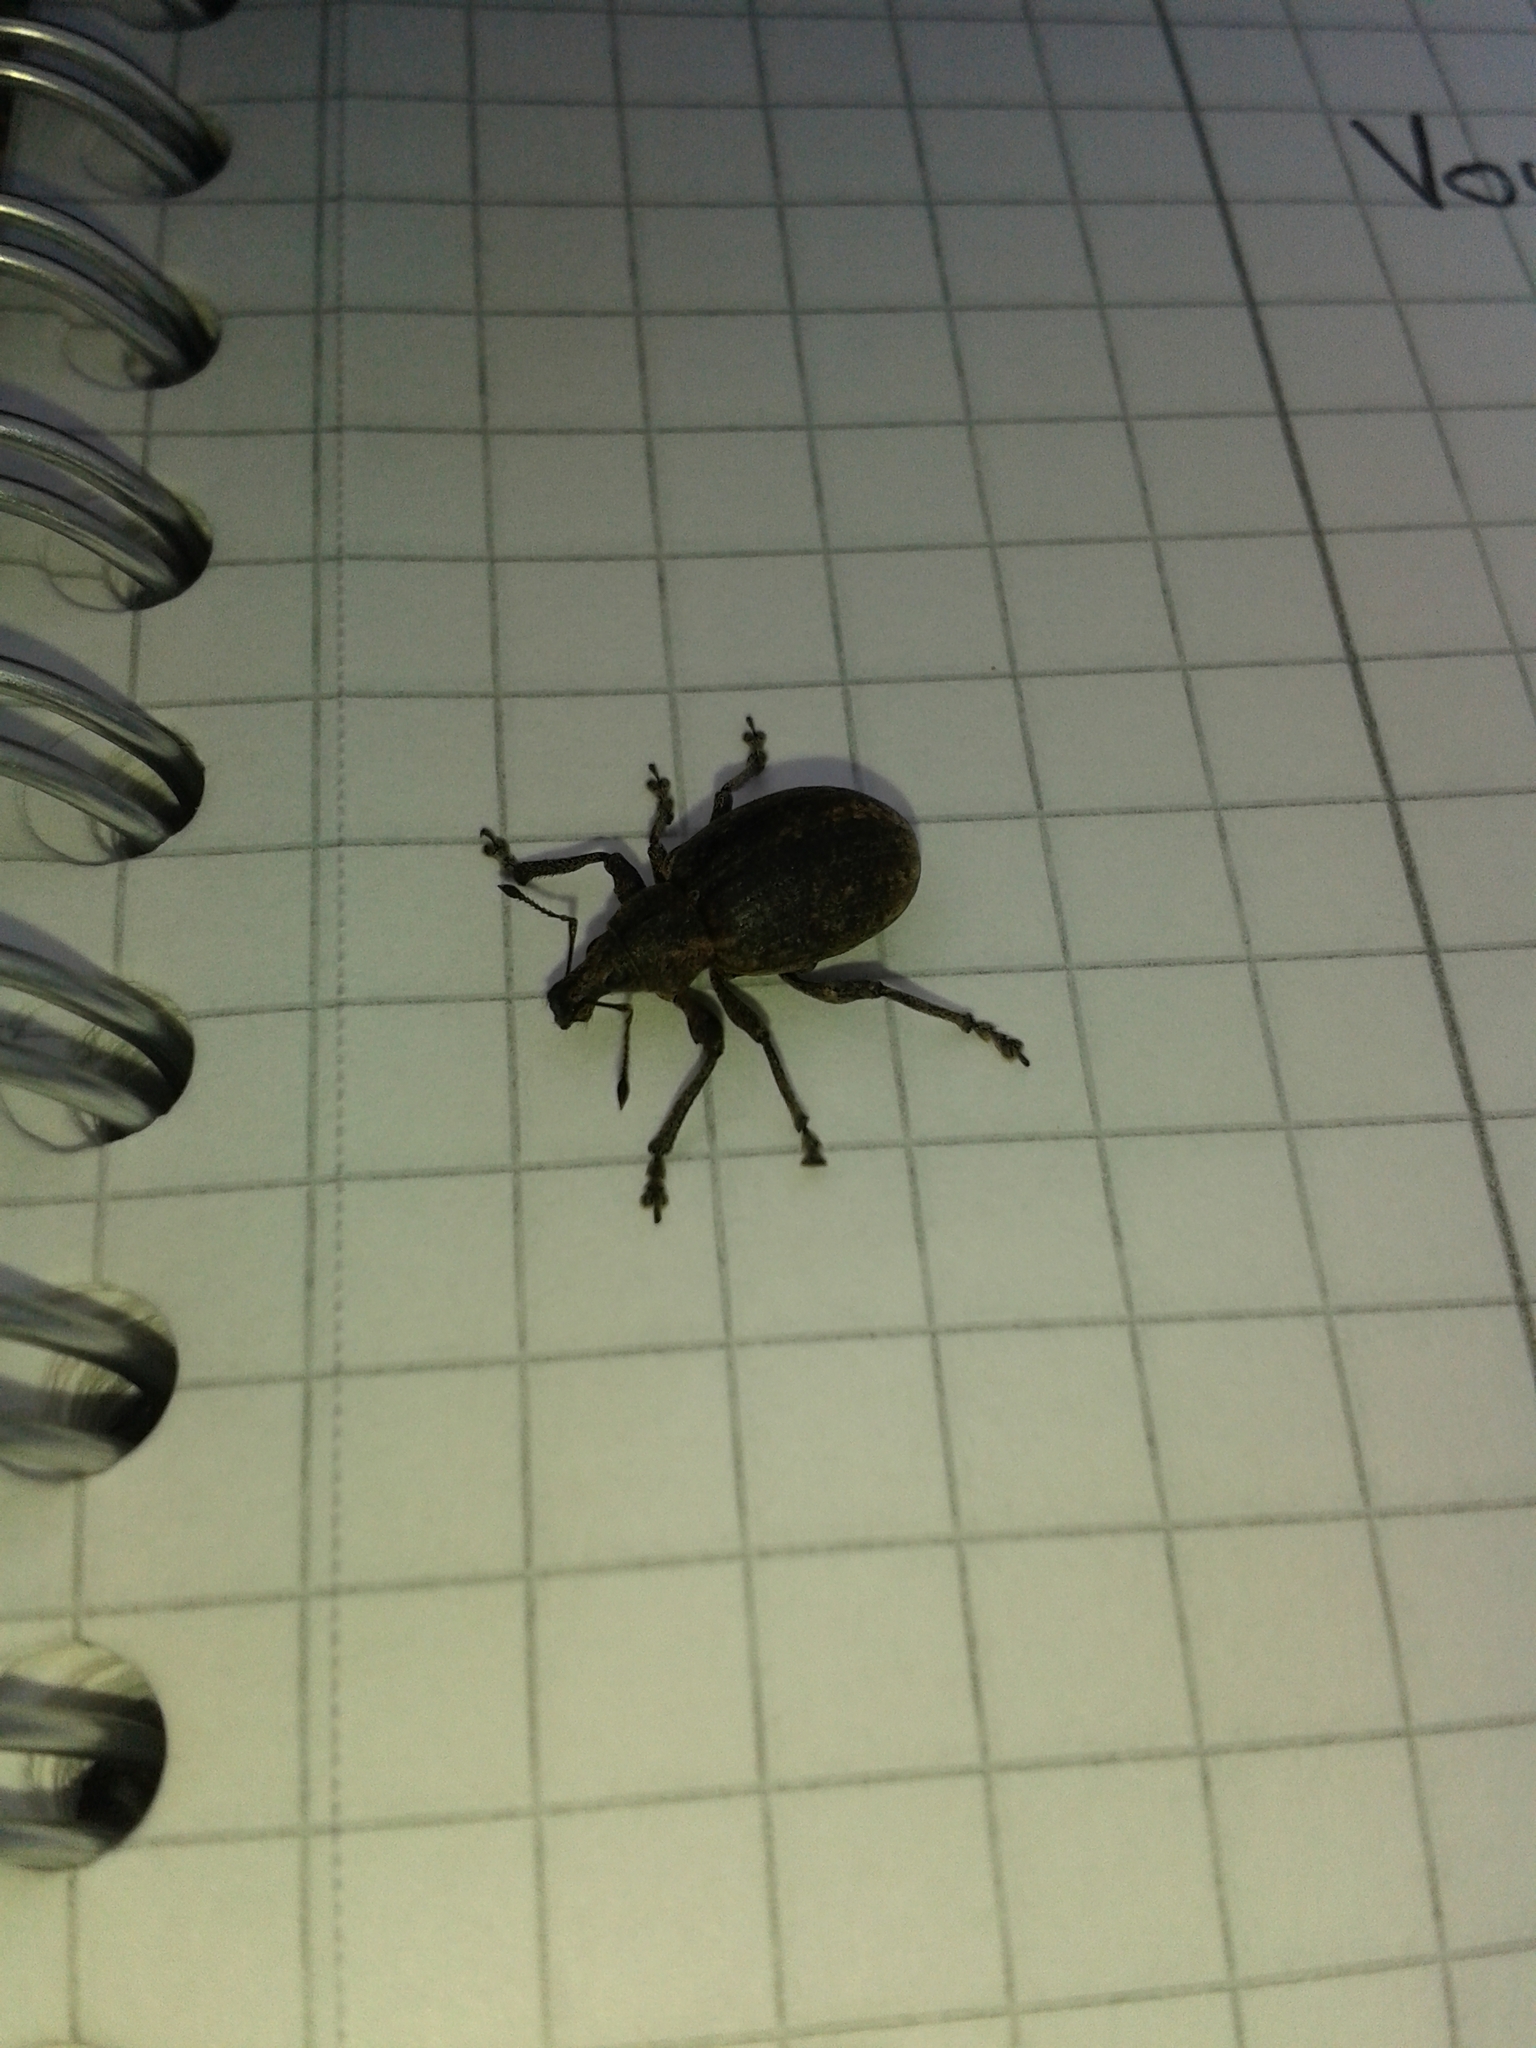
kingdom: Animalia
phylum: Arthropoda
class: Insecta
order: Coleoptera
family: Curculionidae
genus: Liophloeus
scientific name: Liophloeus tessulatus
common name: Weevil
